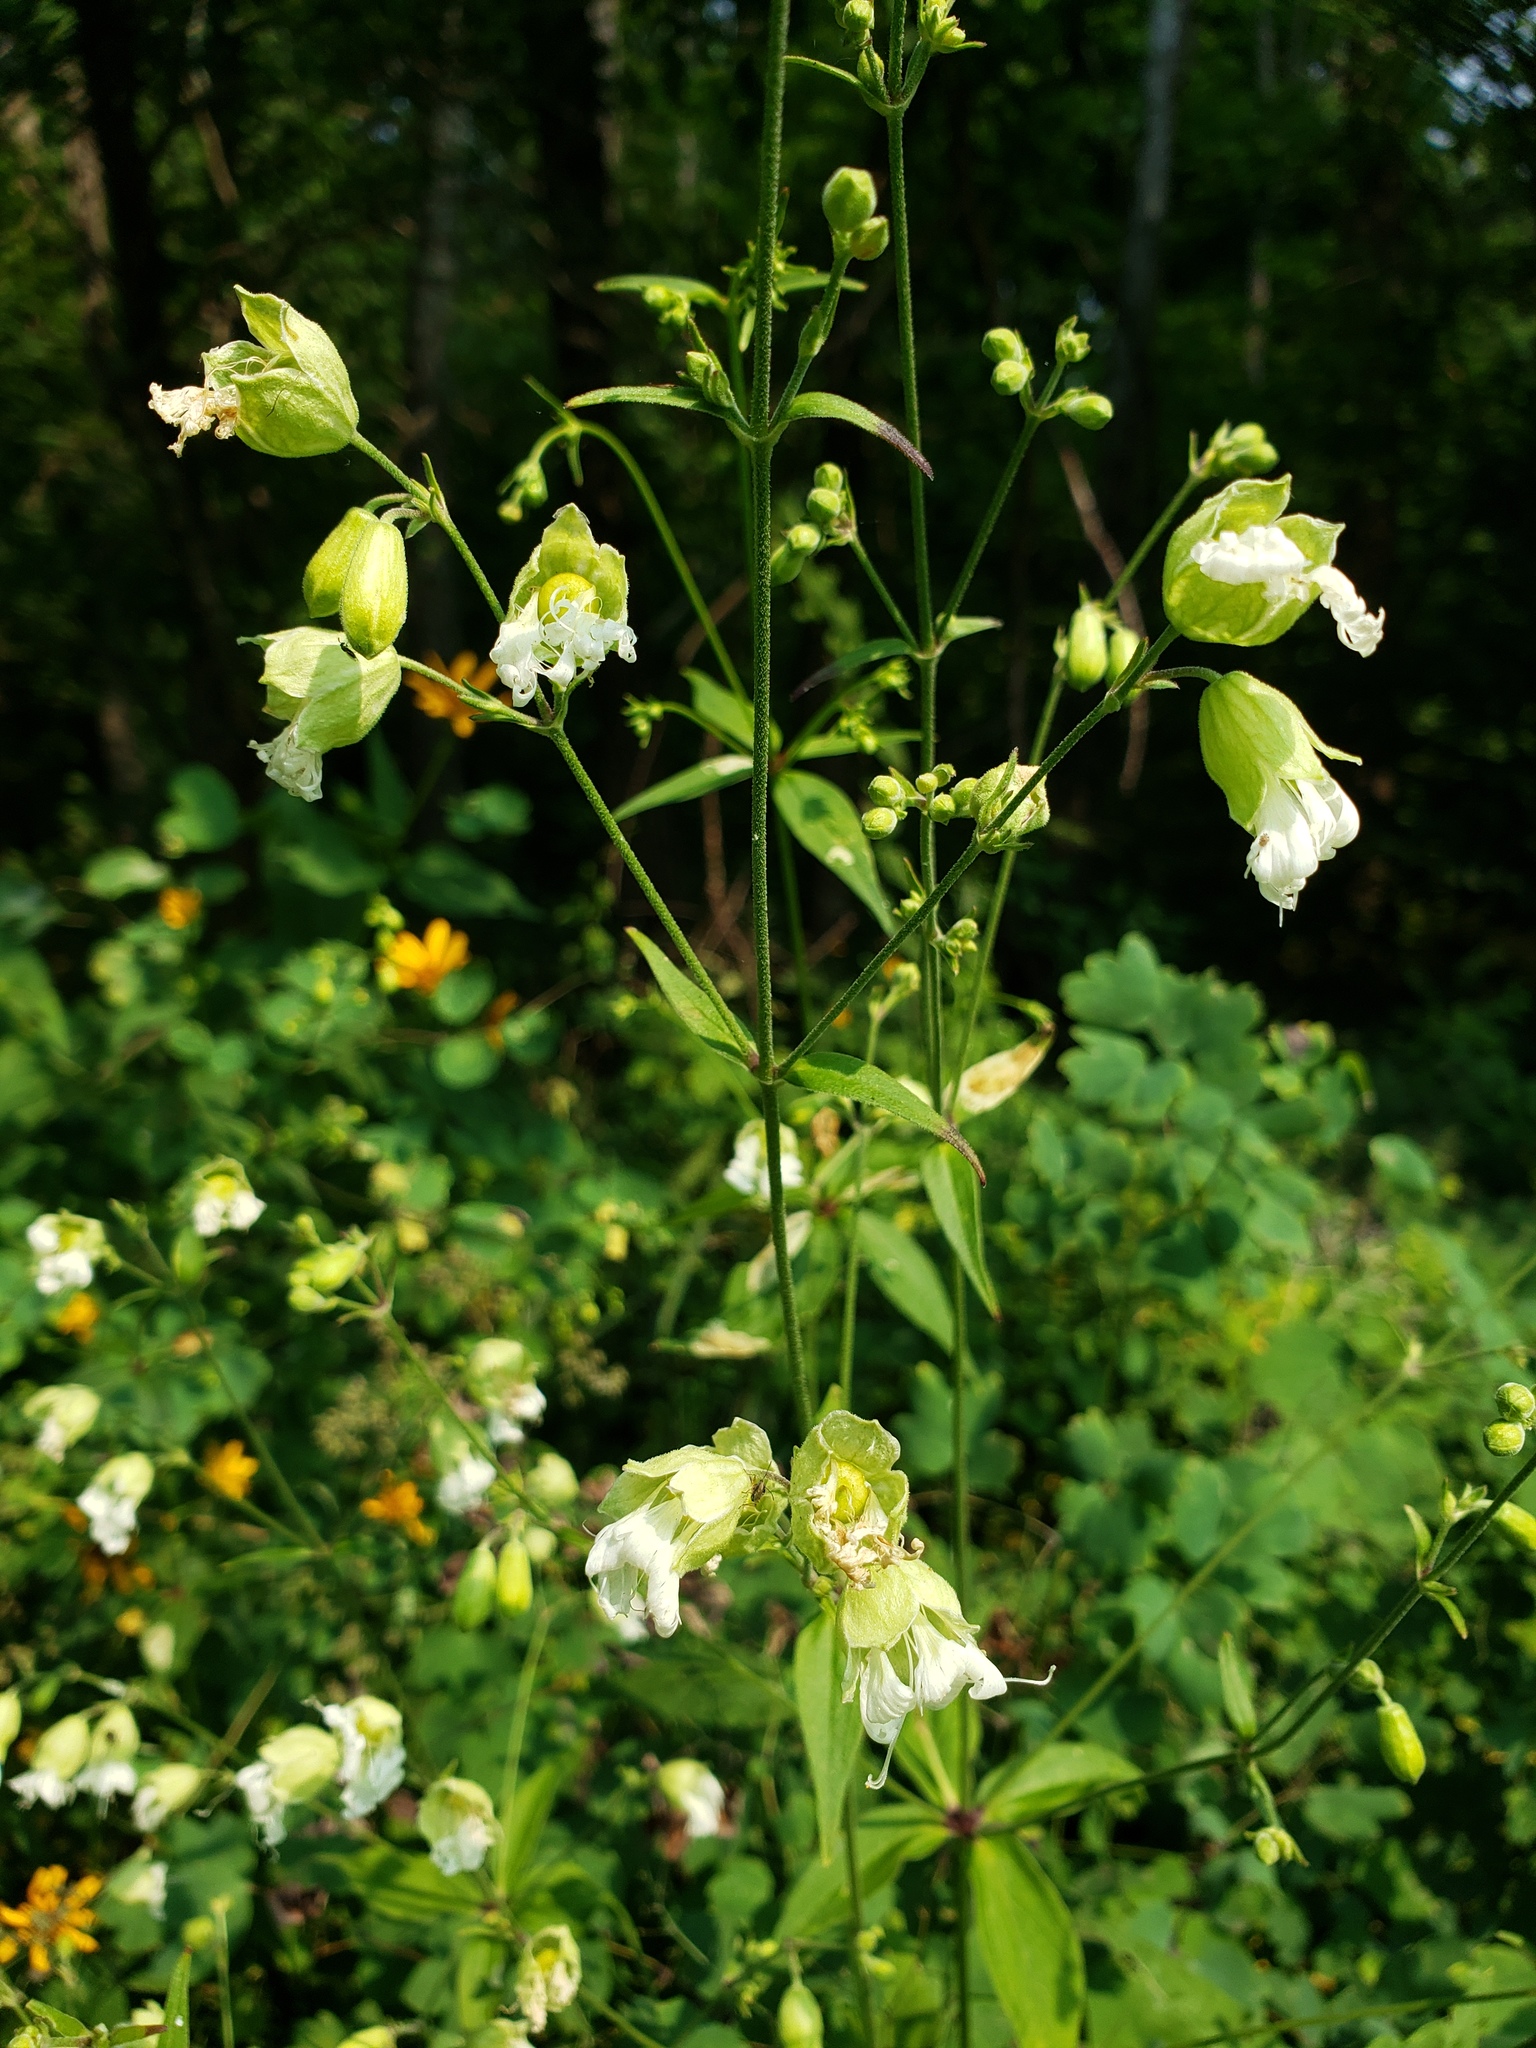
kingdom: Plantae
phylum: Tracheophyta
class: Magnoliopsida
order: Caryophyllales
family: Caryophyllaceae
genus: Silene
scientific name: Silene stellata
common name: Starry campion
